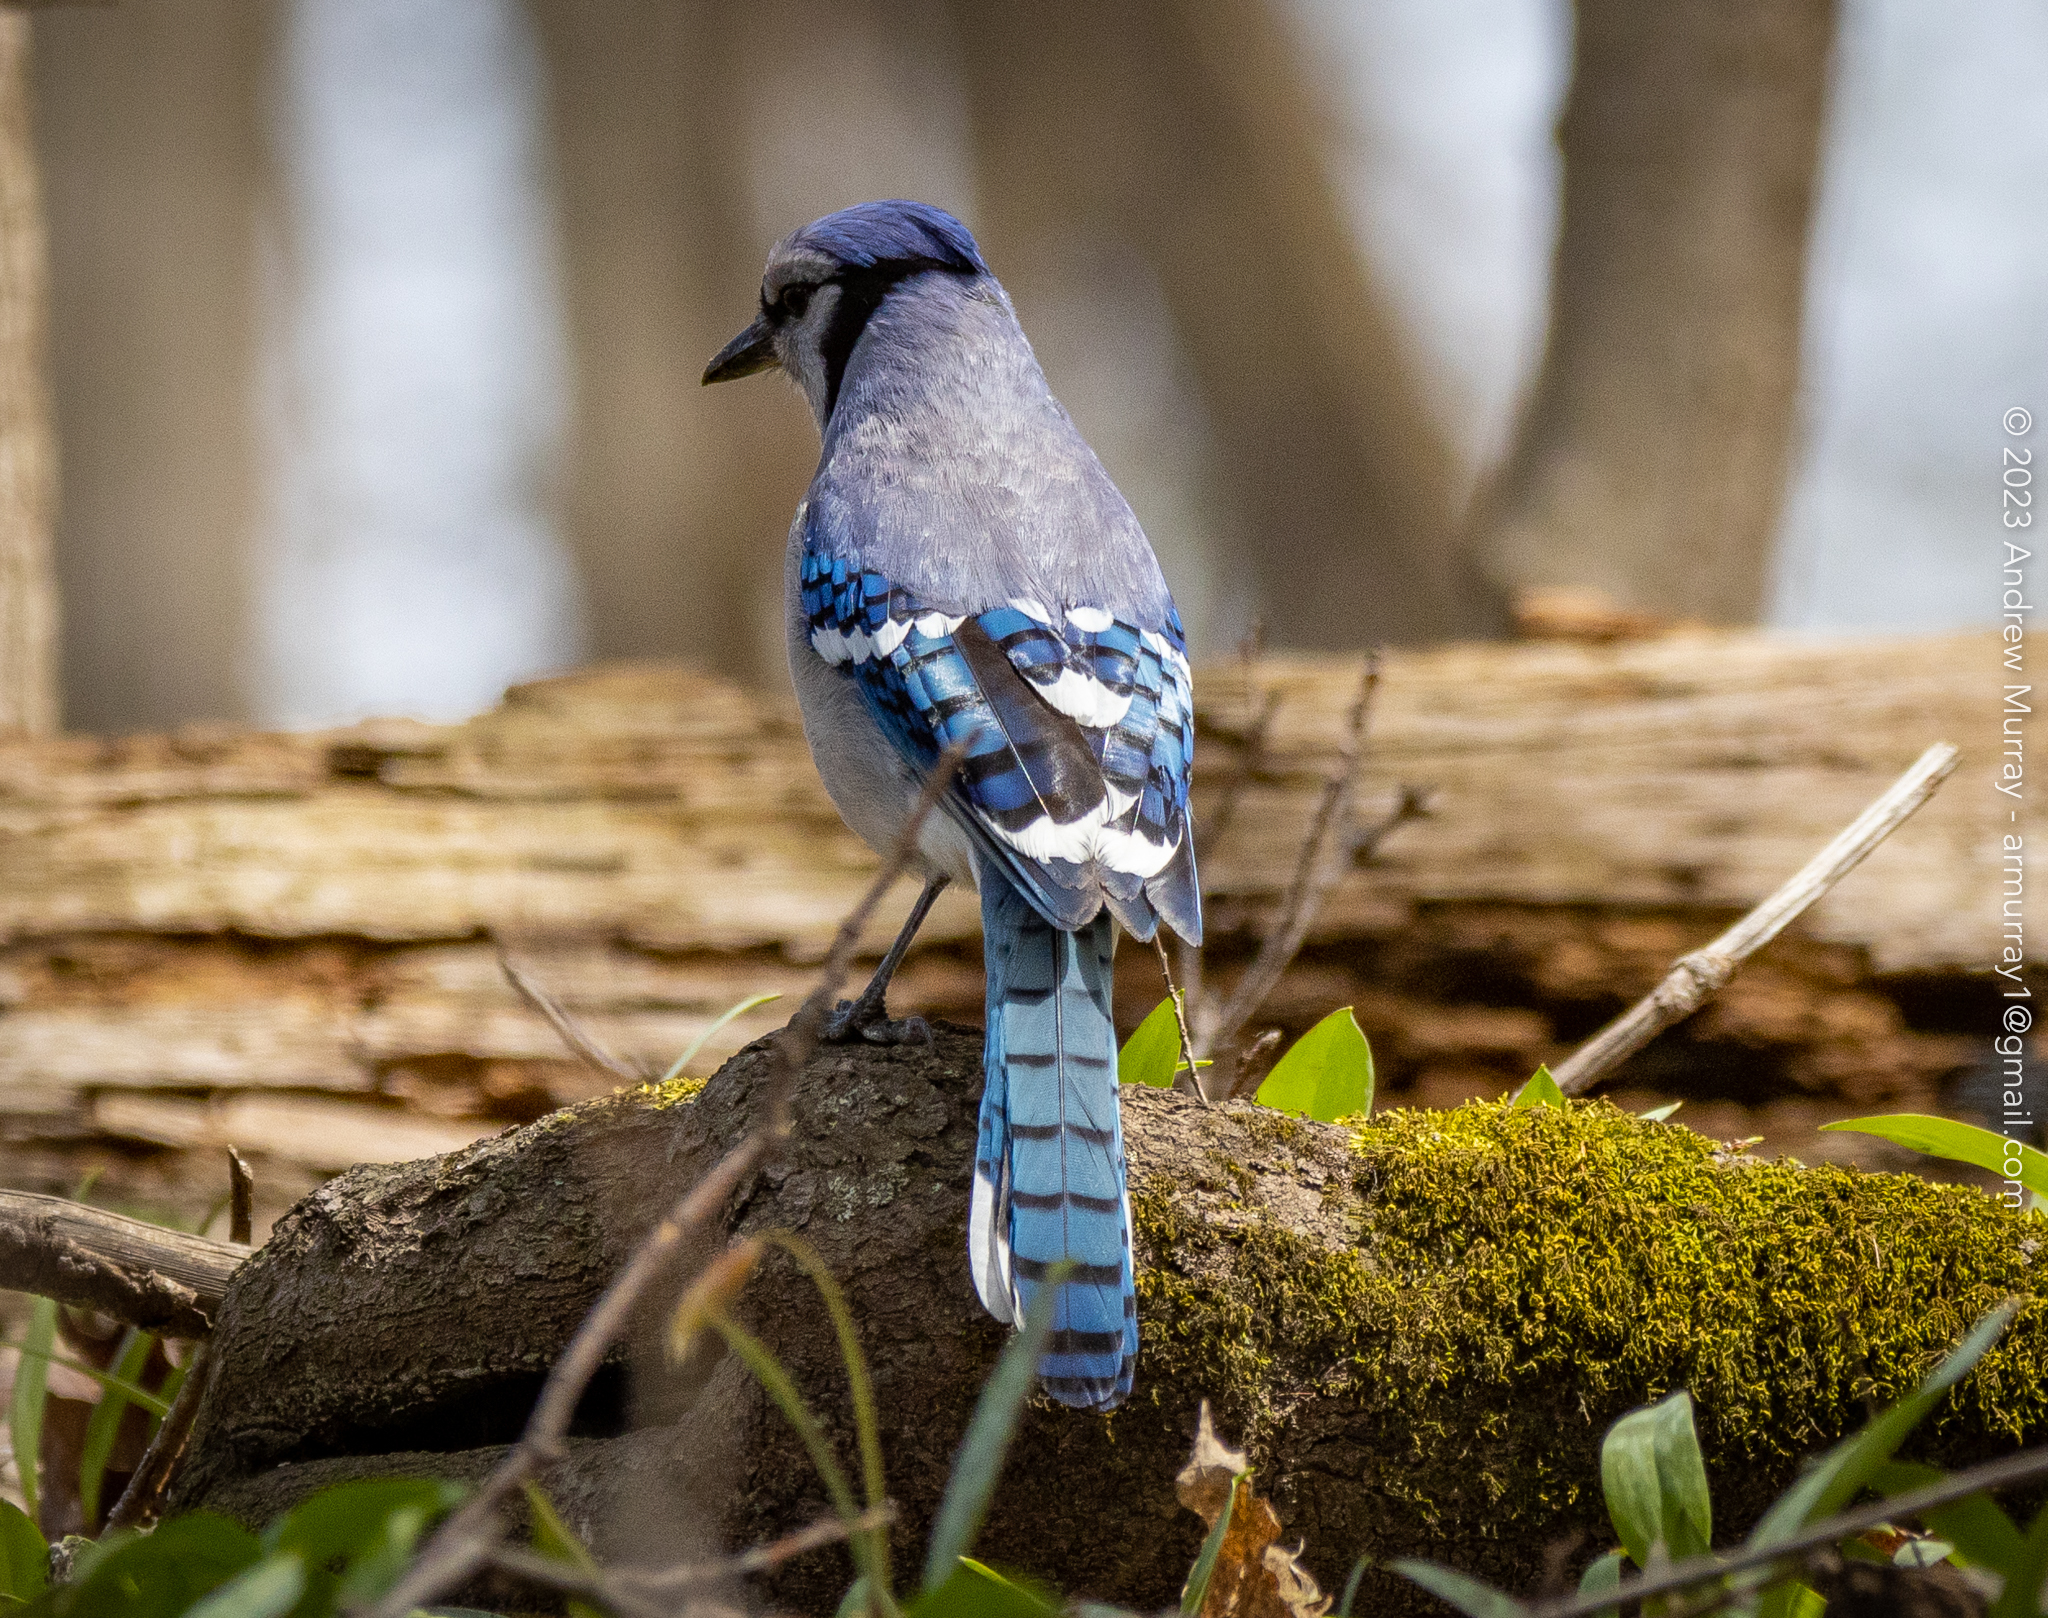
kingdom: Animalia
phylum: Chordata
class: Aves
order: Passeriformes
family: Corvidae
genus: Cyanocitta
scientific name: Cyanocitta cristata
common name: Blue jay
